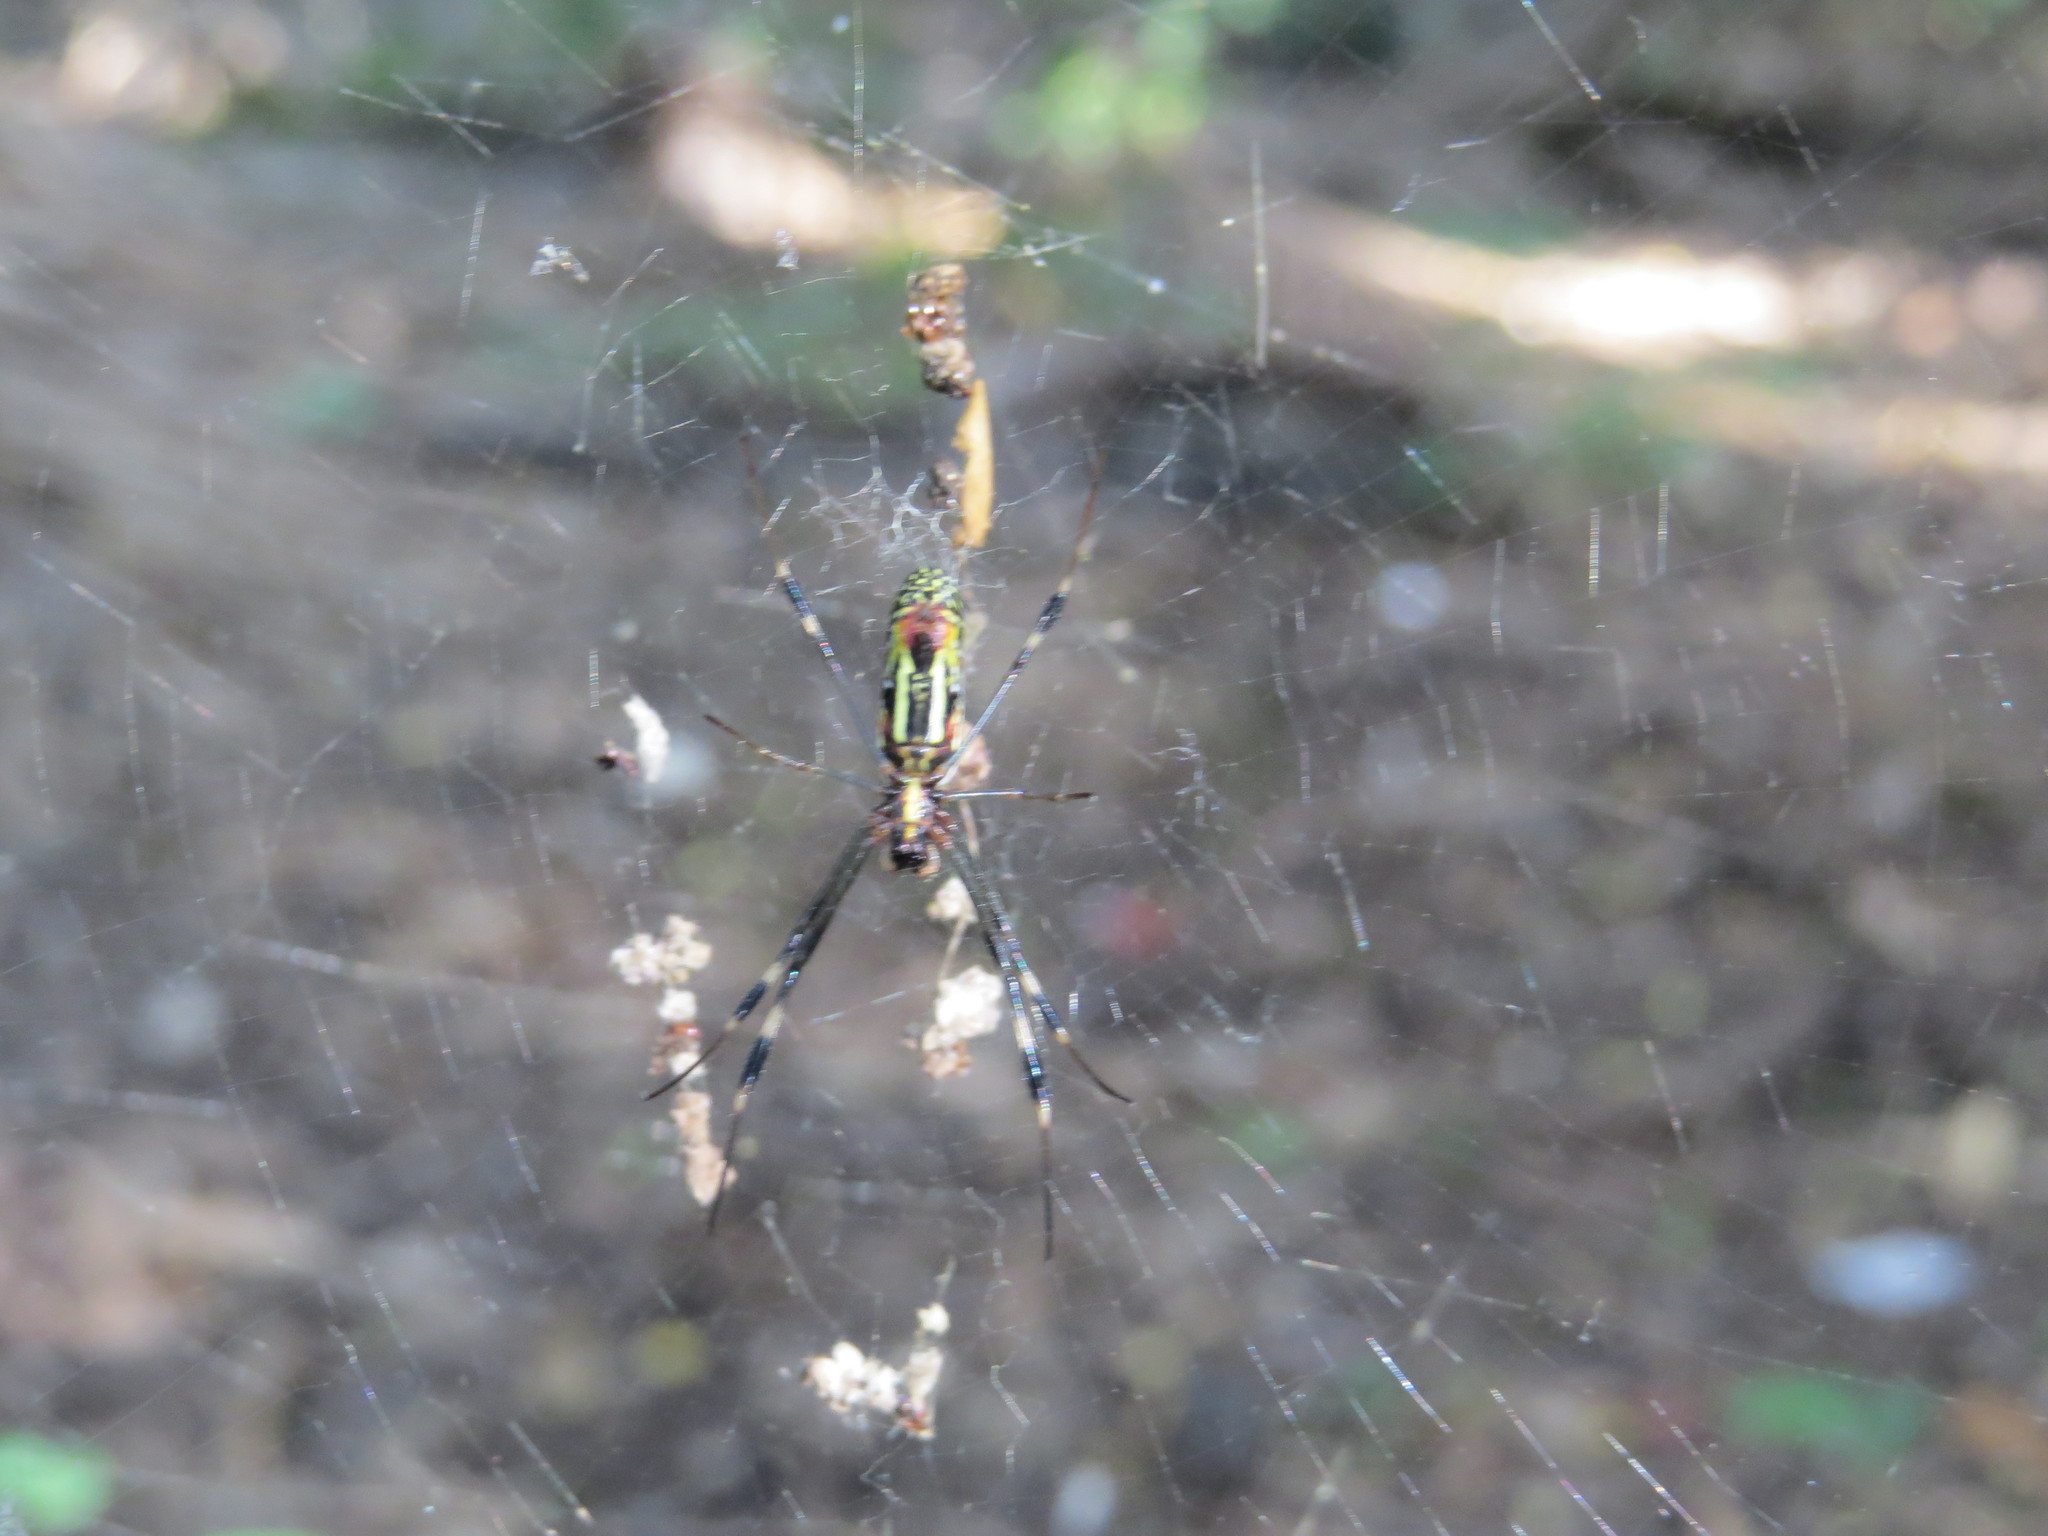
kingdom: Animalia
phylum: Arthropoda
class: Arachnida
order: Araneae
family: Araneidae
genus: Trichonephila
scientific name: Trichonephila clavipes
